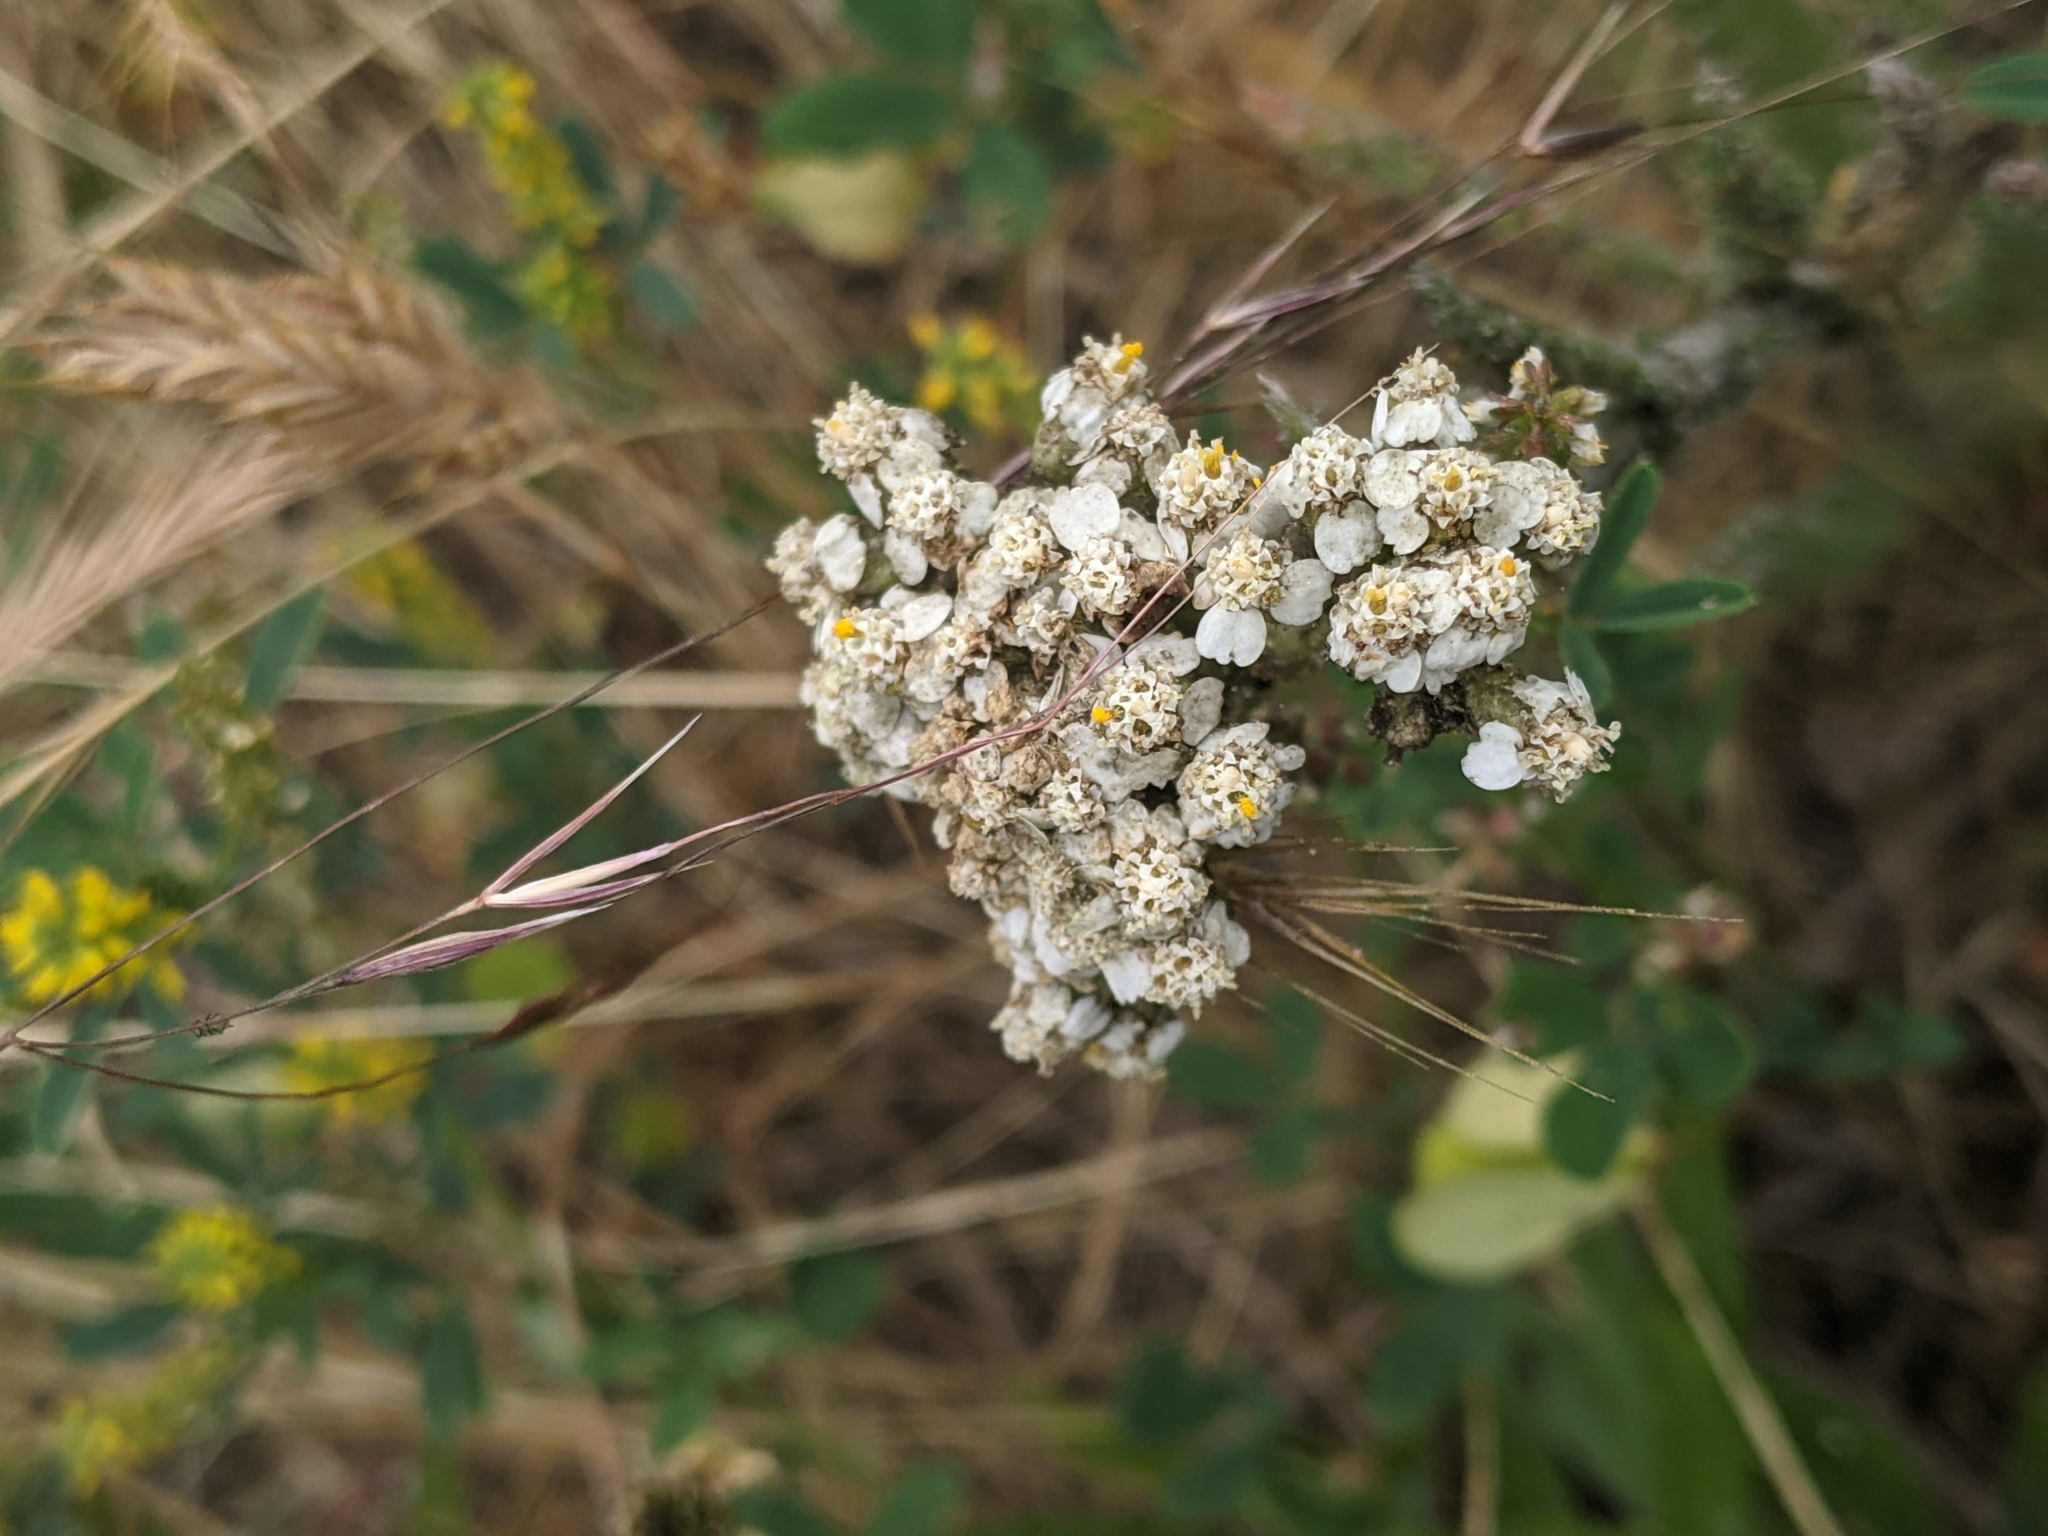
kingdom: Plantae
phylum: Tracheophyta
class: Magnoliopsida
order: Asterales
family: Asteraceae
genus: Achillea
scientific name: Achillea millefolium
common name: Yarrow
